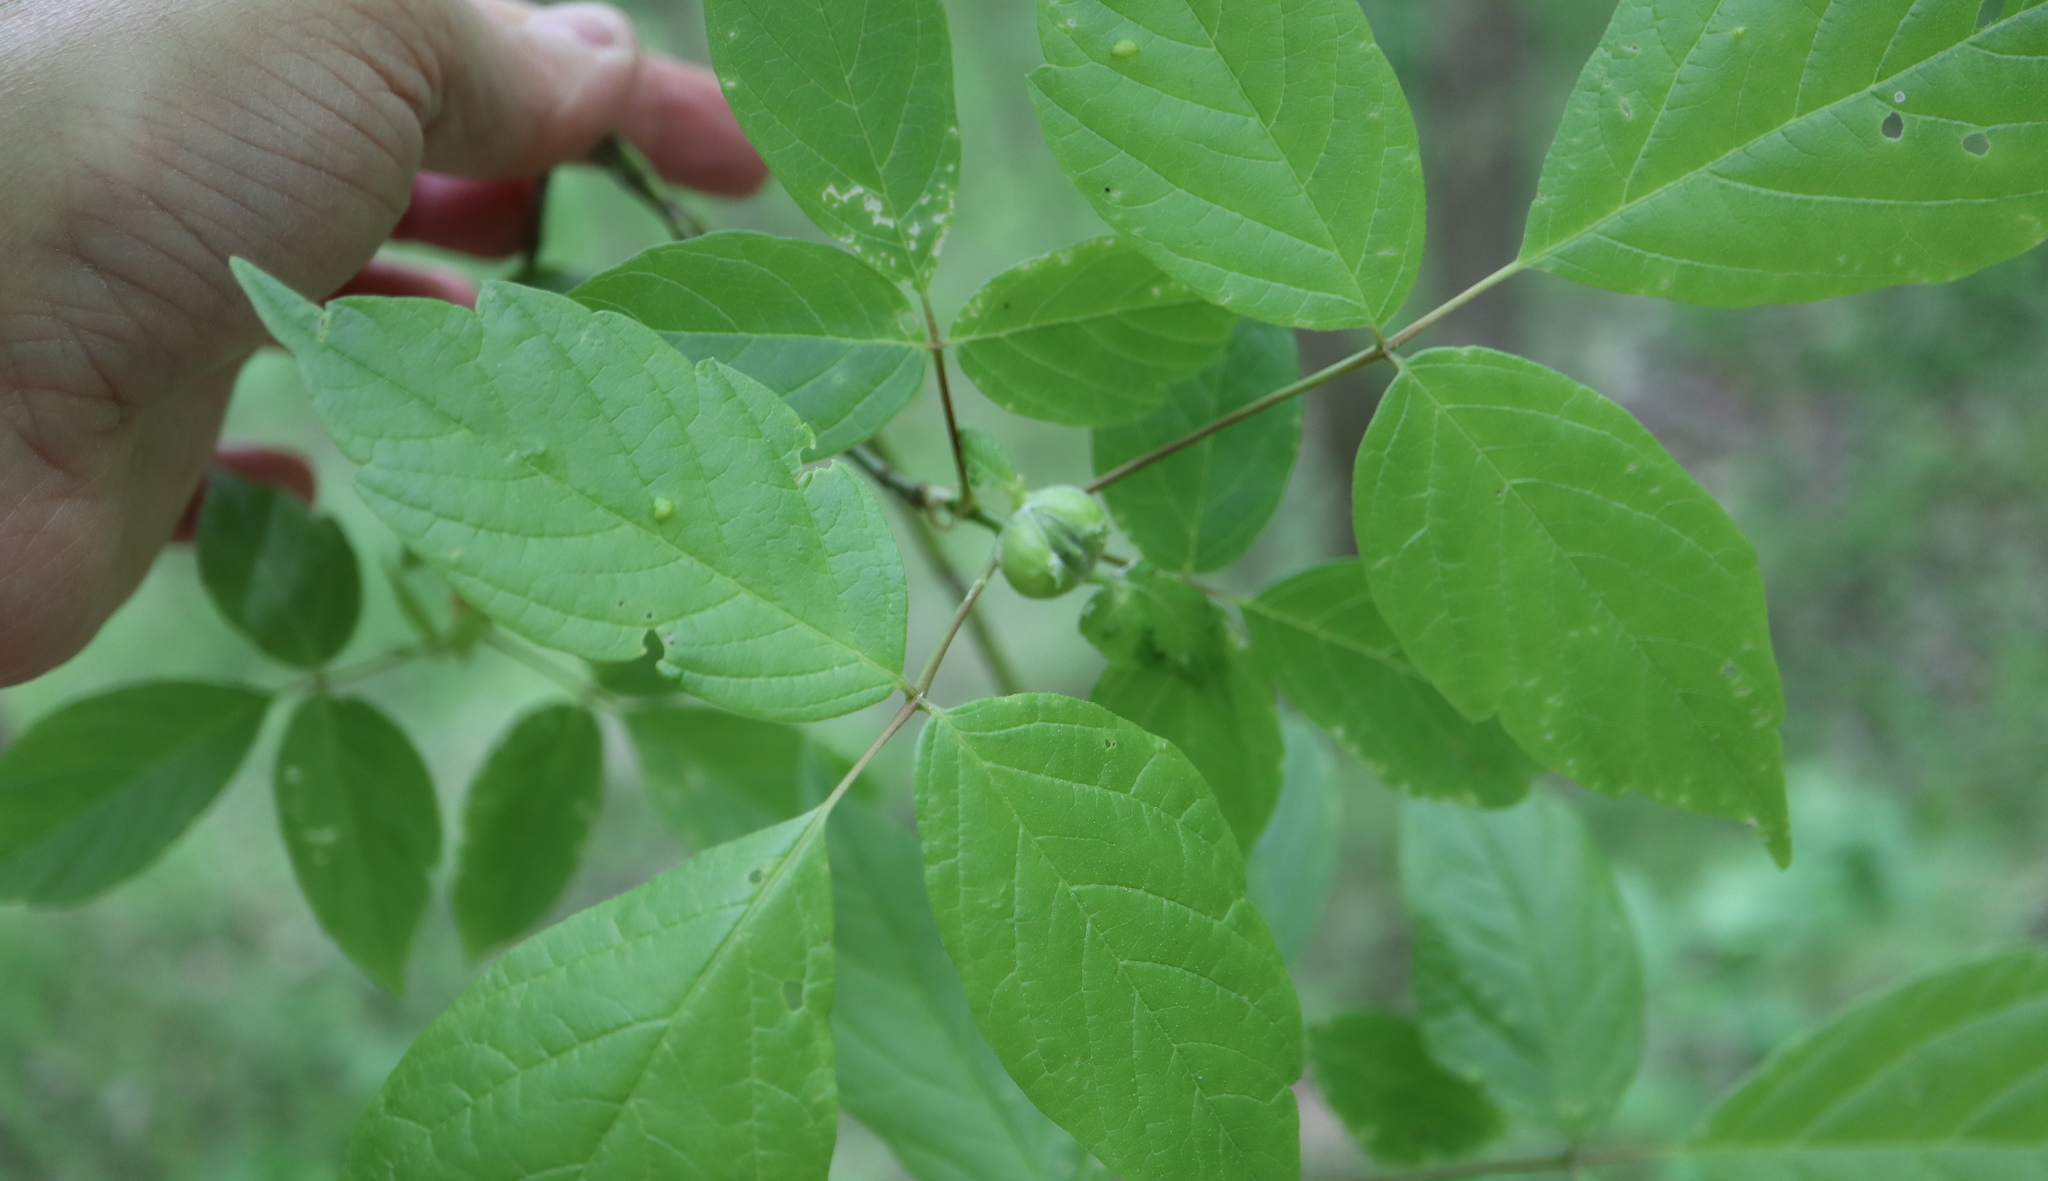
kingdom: Animalia
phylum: Arthropoda
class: Insecta
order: Diptera
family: Cecidomyiidae
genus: Contarinia
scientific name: Contarinia negundinis
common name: Boxelder budgall midge
